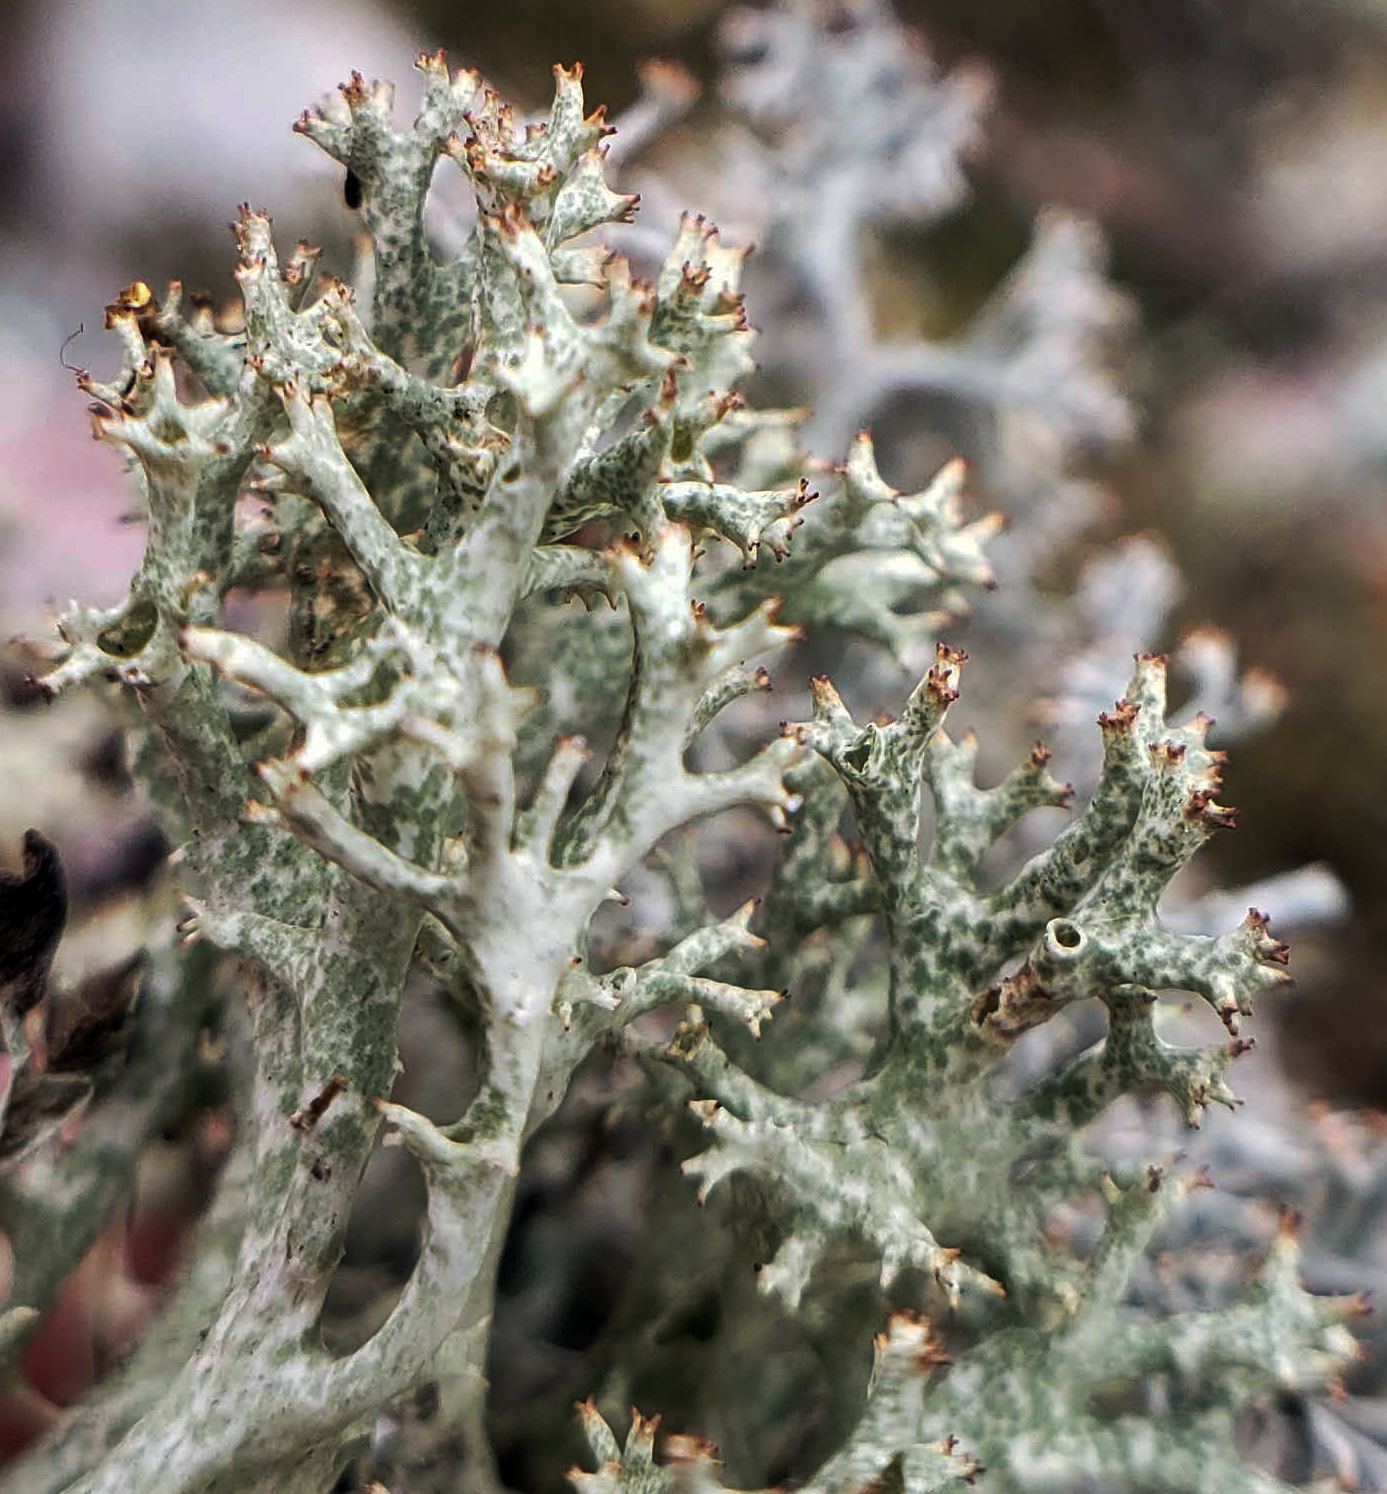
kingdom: Fungi
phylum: Ascomycota
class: Lecanoromycetes
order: Lecanorales
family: Cladoniaceae
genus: Cladonia
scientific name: Cladonia uncialis
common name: Thorn lichen
